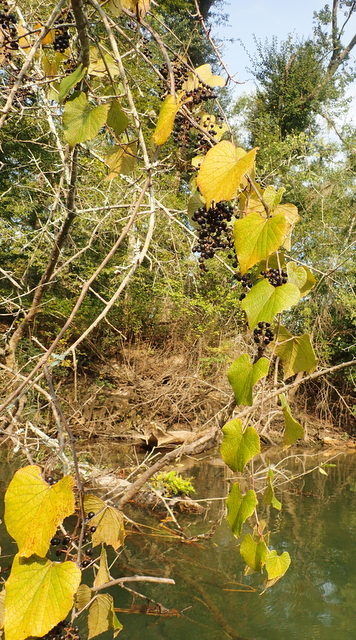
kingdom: Plantae
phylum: Tracheophyta
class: Magnoliopsida
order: Vitales
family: Vitaceae
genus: Vitis
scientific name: Vitis vulpina
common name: Frost grape
